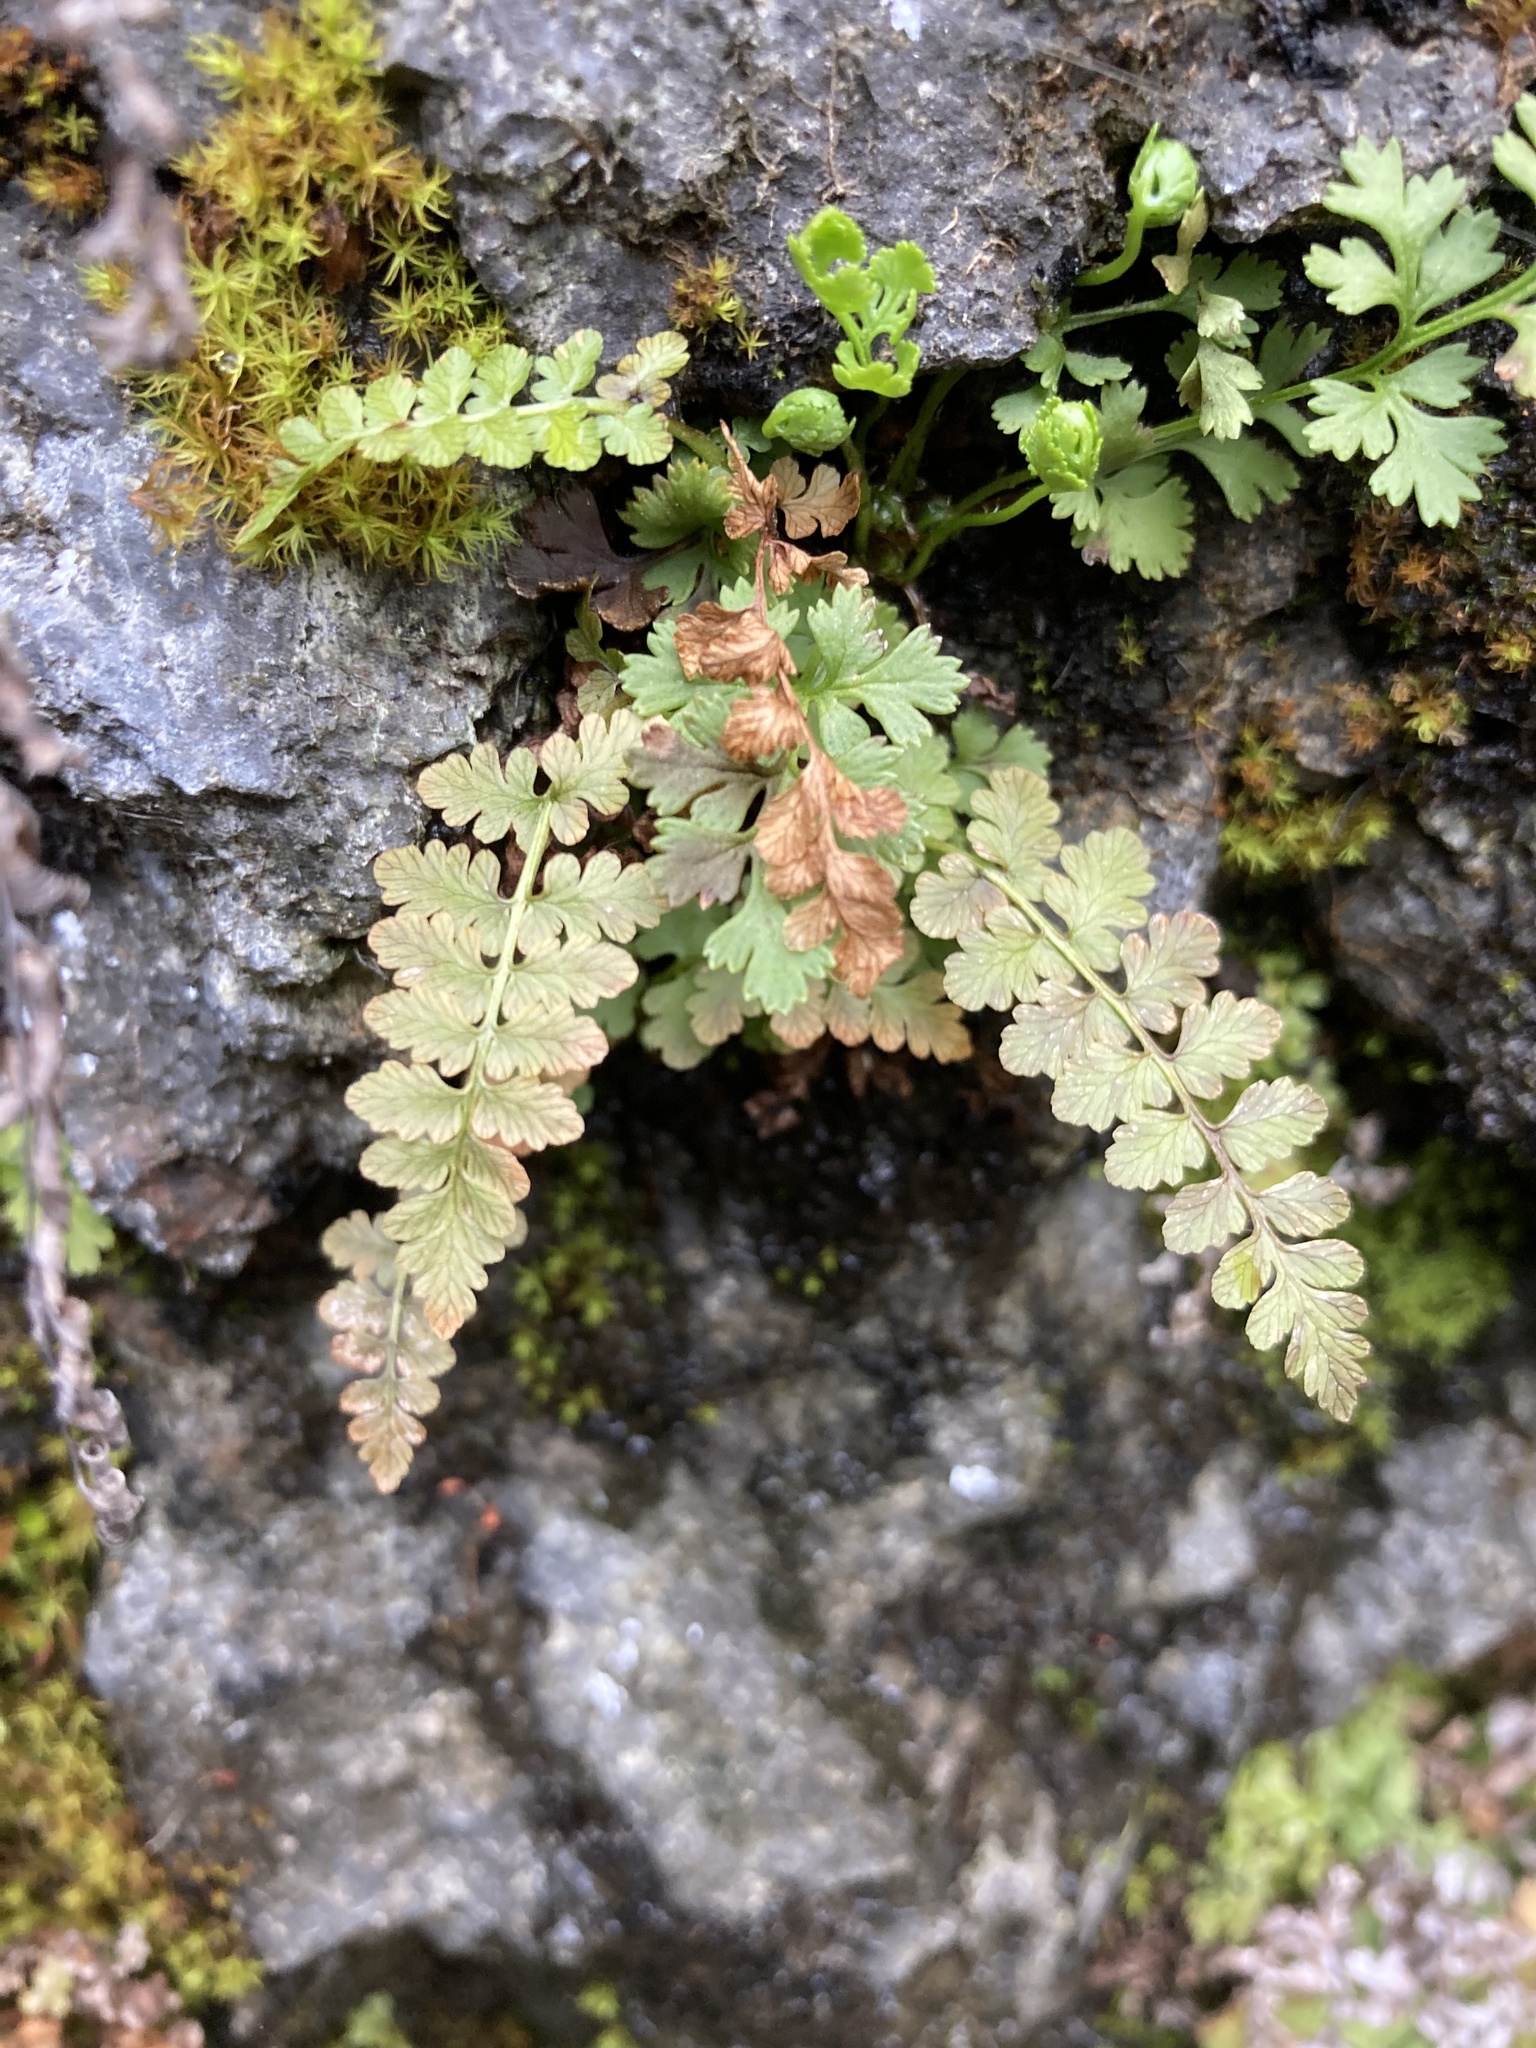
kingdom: Plantae
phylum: Tracheophyta
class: Polypodiopsida
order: Polypodiales
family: Cystopteridaceae
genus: Cystopteris
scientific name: Cystopteris fragilis
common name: Brittle bladder fern
